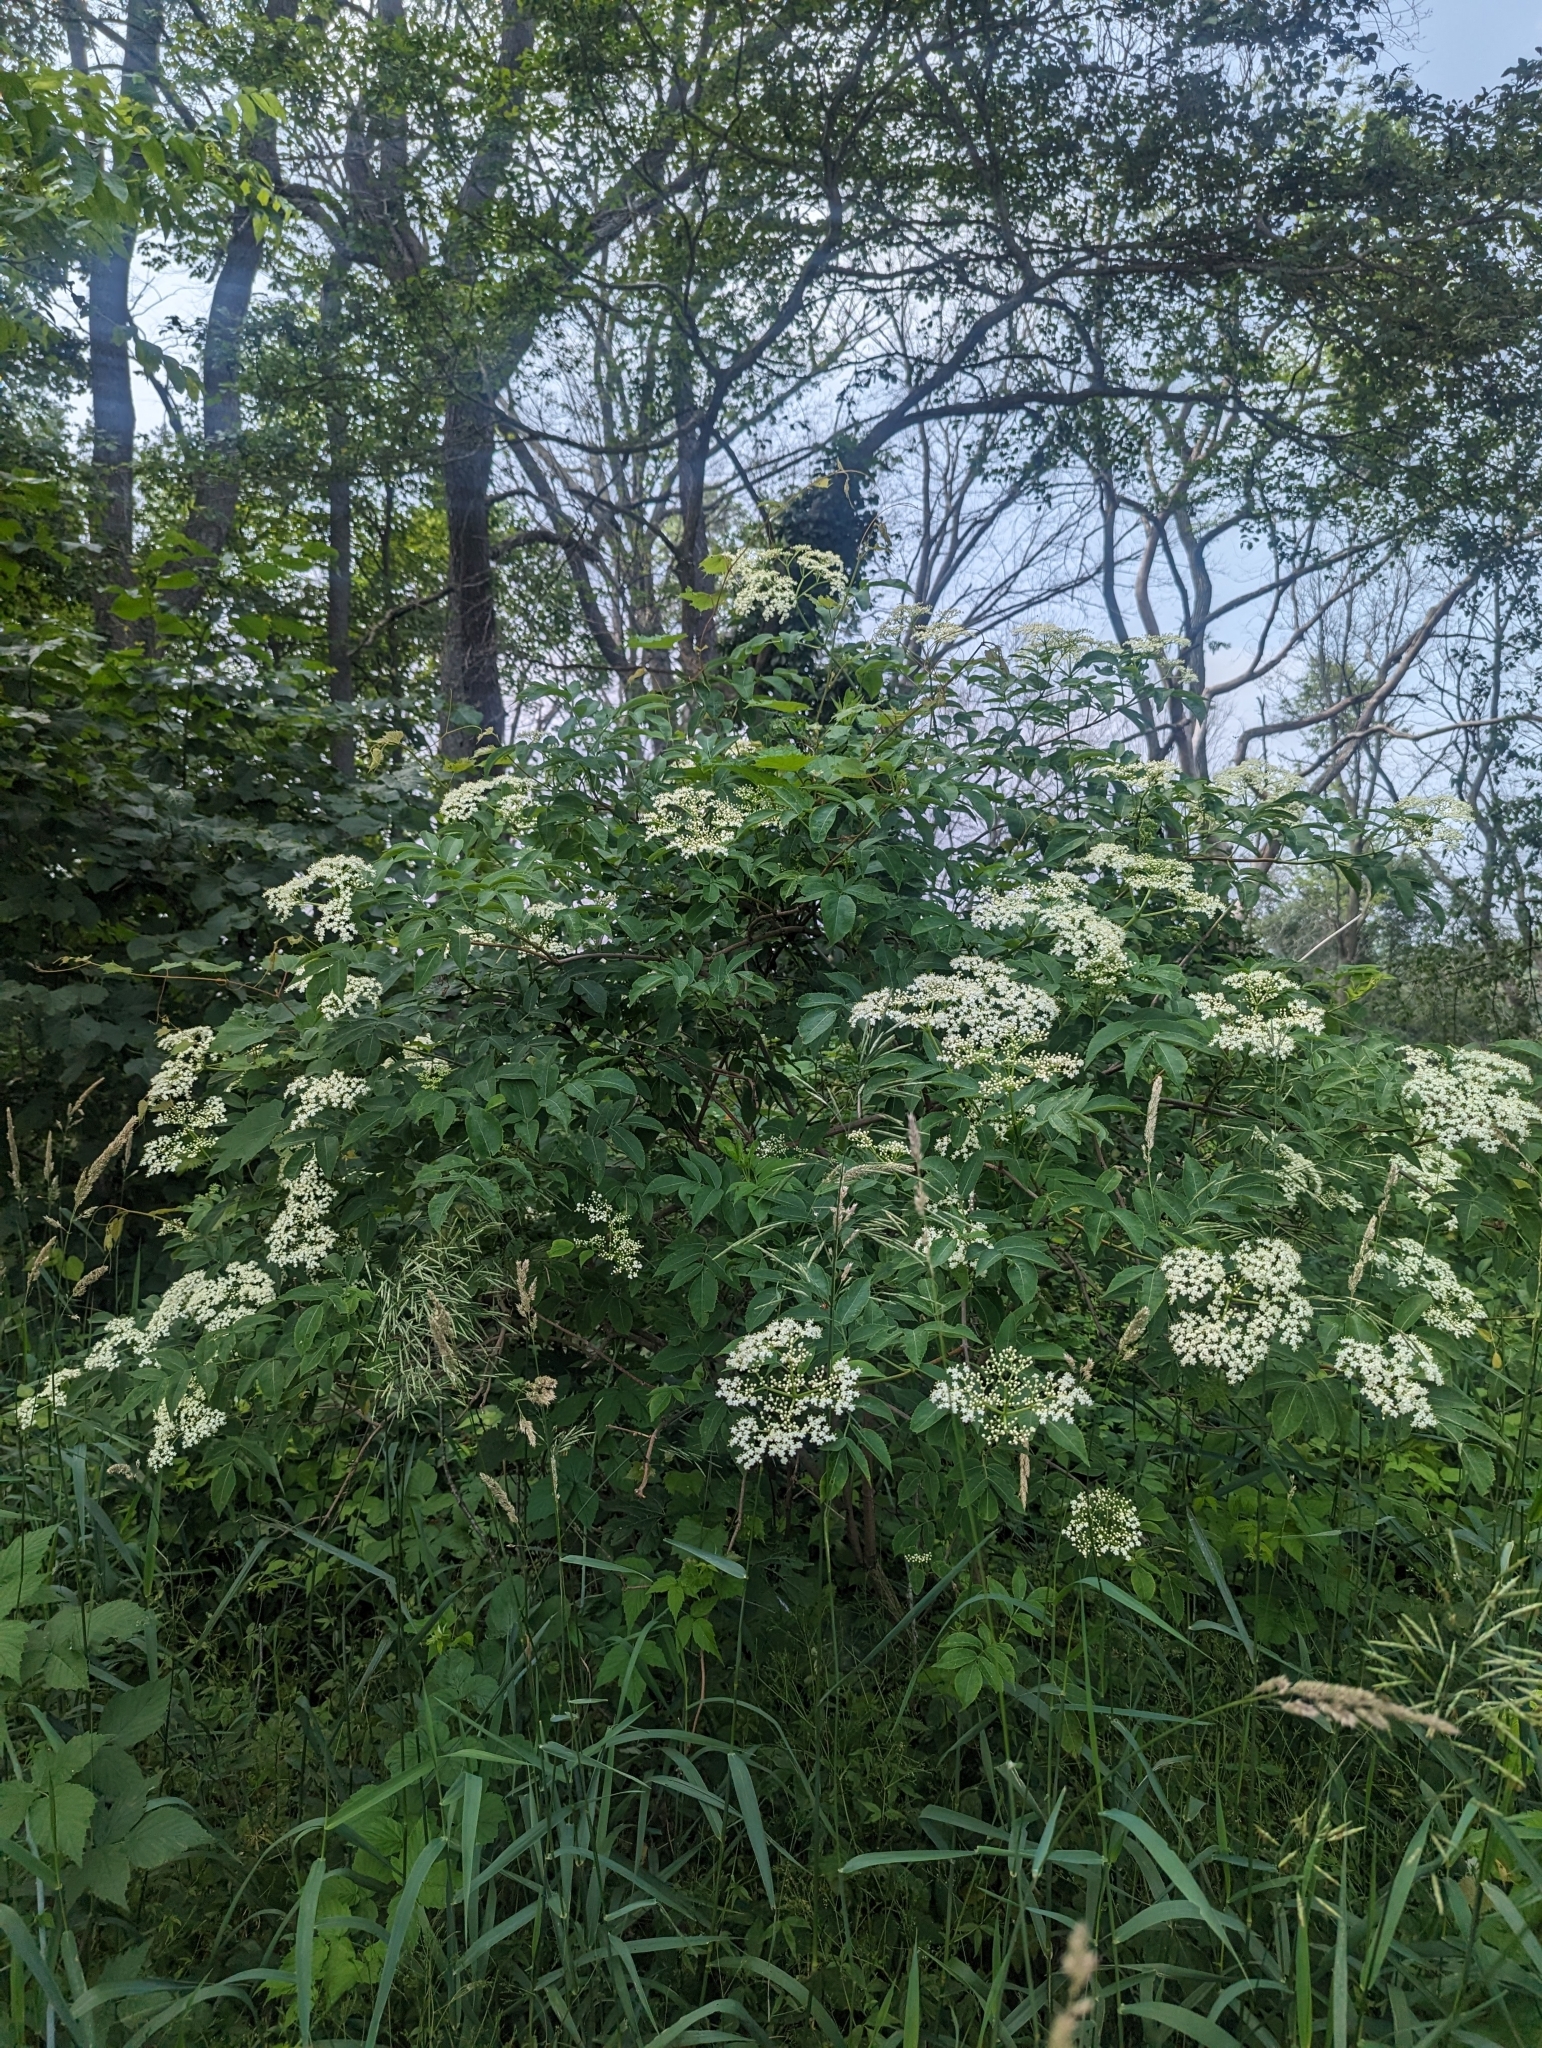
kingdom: Plantae
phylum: Tracheophyta
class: Magnoliopsida
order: Dipsacales
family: Viburnaceae
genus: Sambucus
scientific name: Sambucus canadensis
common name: American elder
